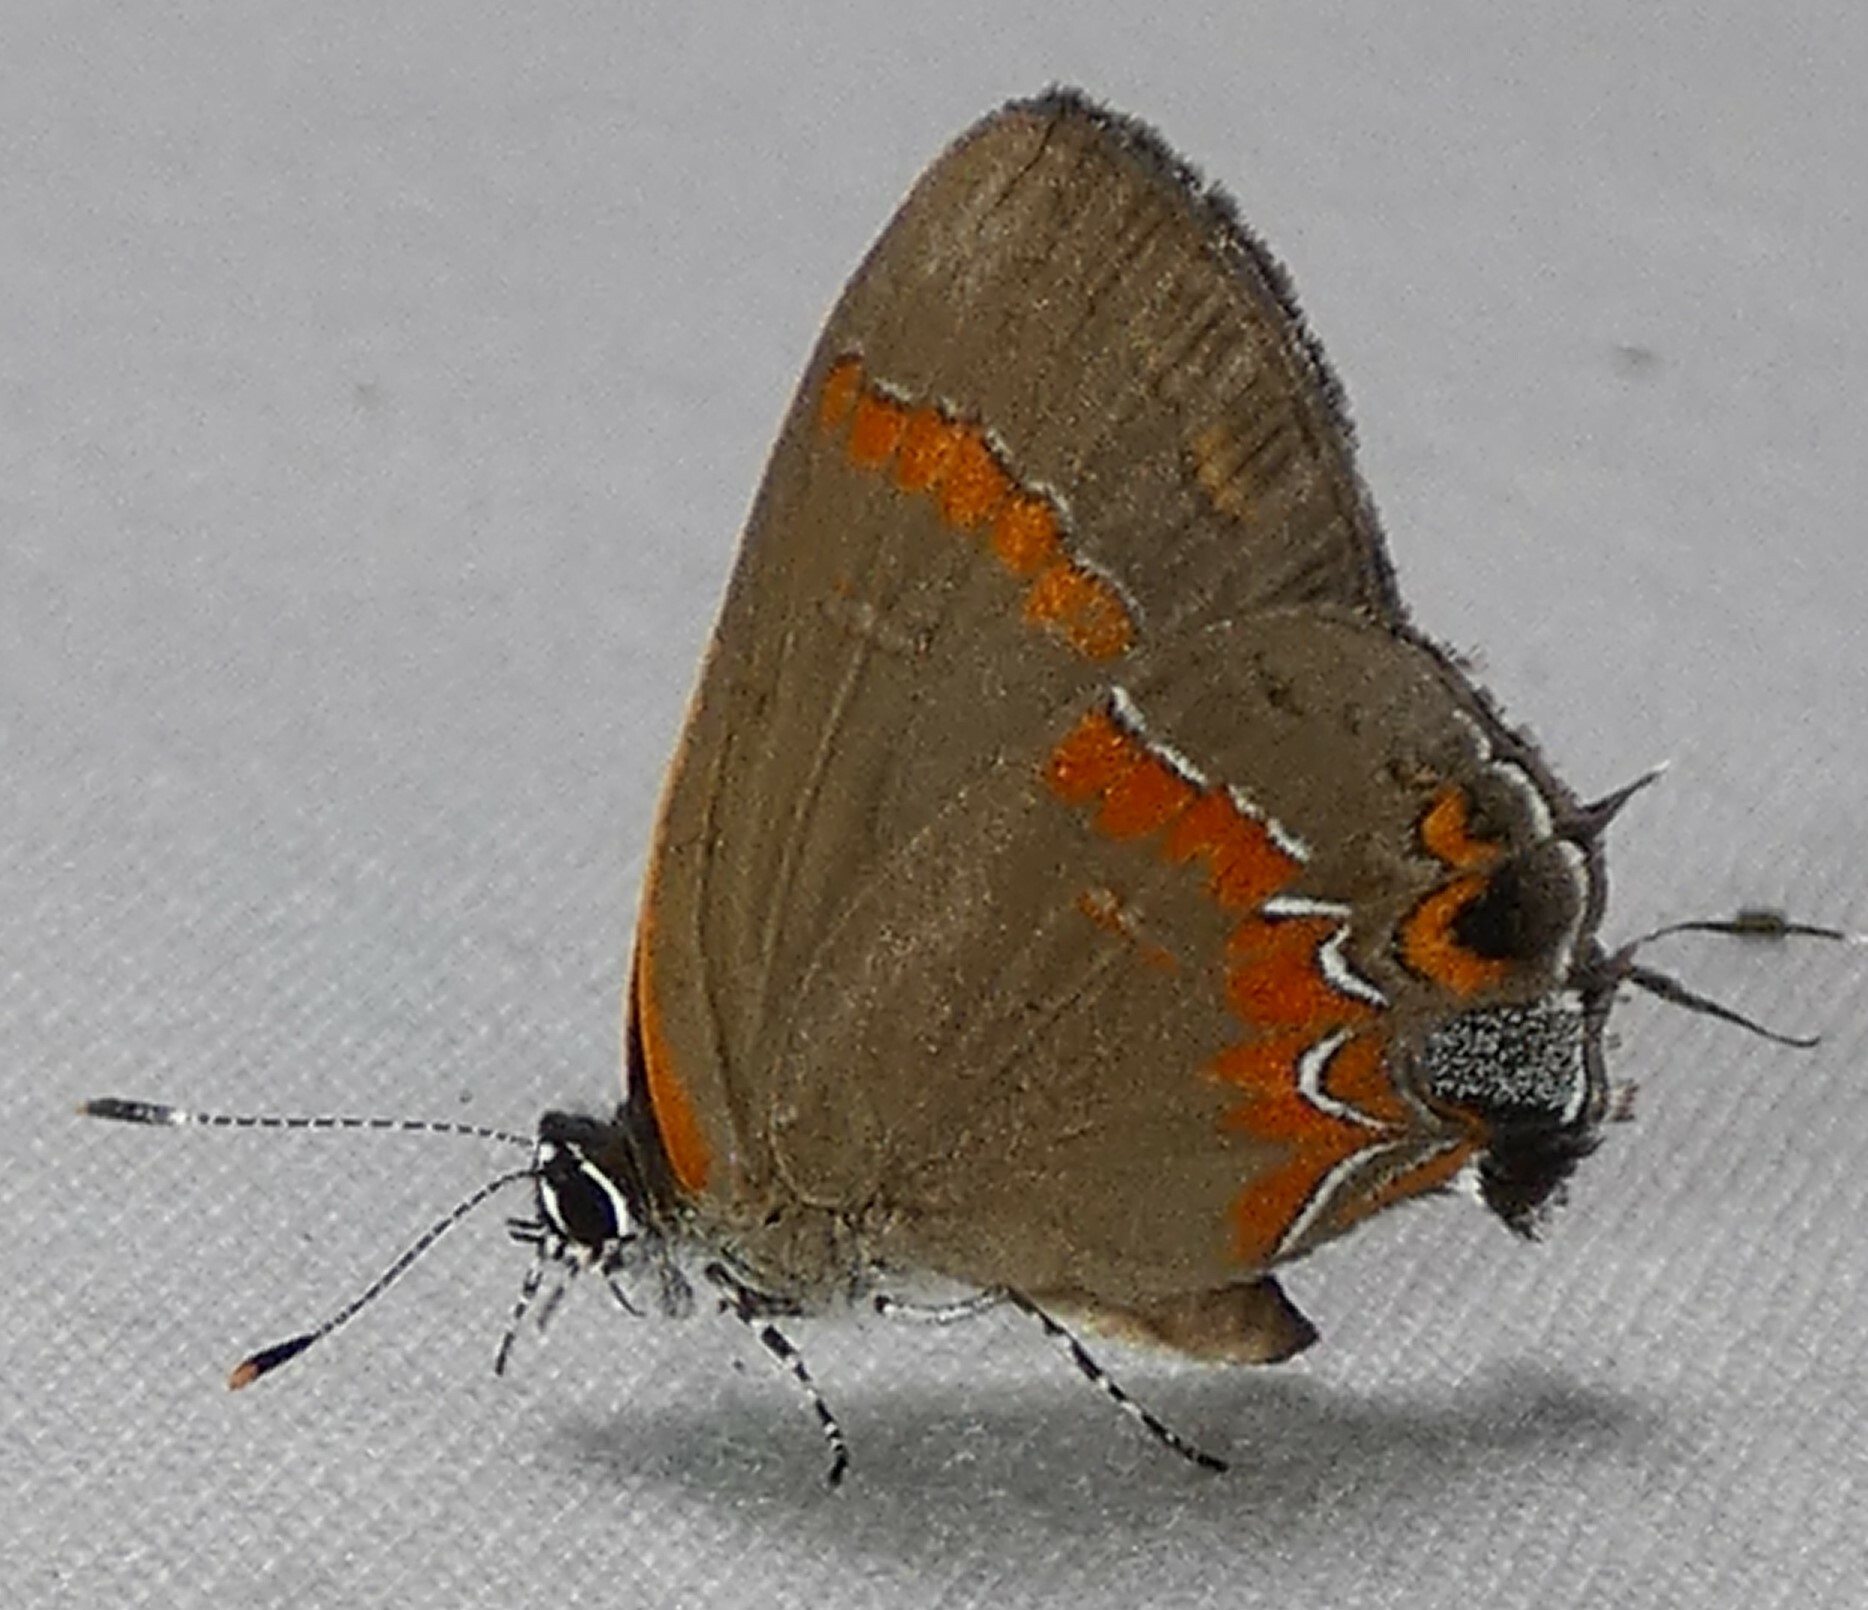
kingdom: Animalia
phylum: Arthropoda
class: Insecta
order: Lepidoptera
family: Lycaenidae
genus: Calycopis
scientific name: Calycopis cecrops
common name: Red-banded hairstreak
